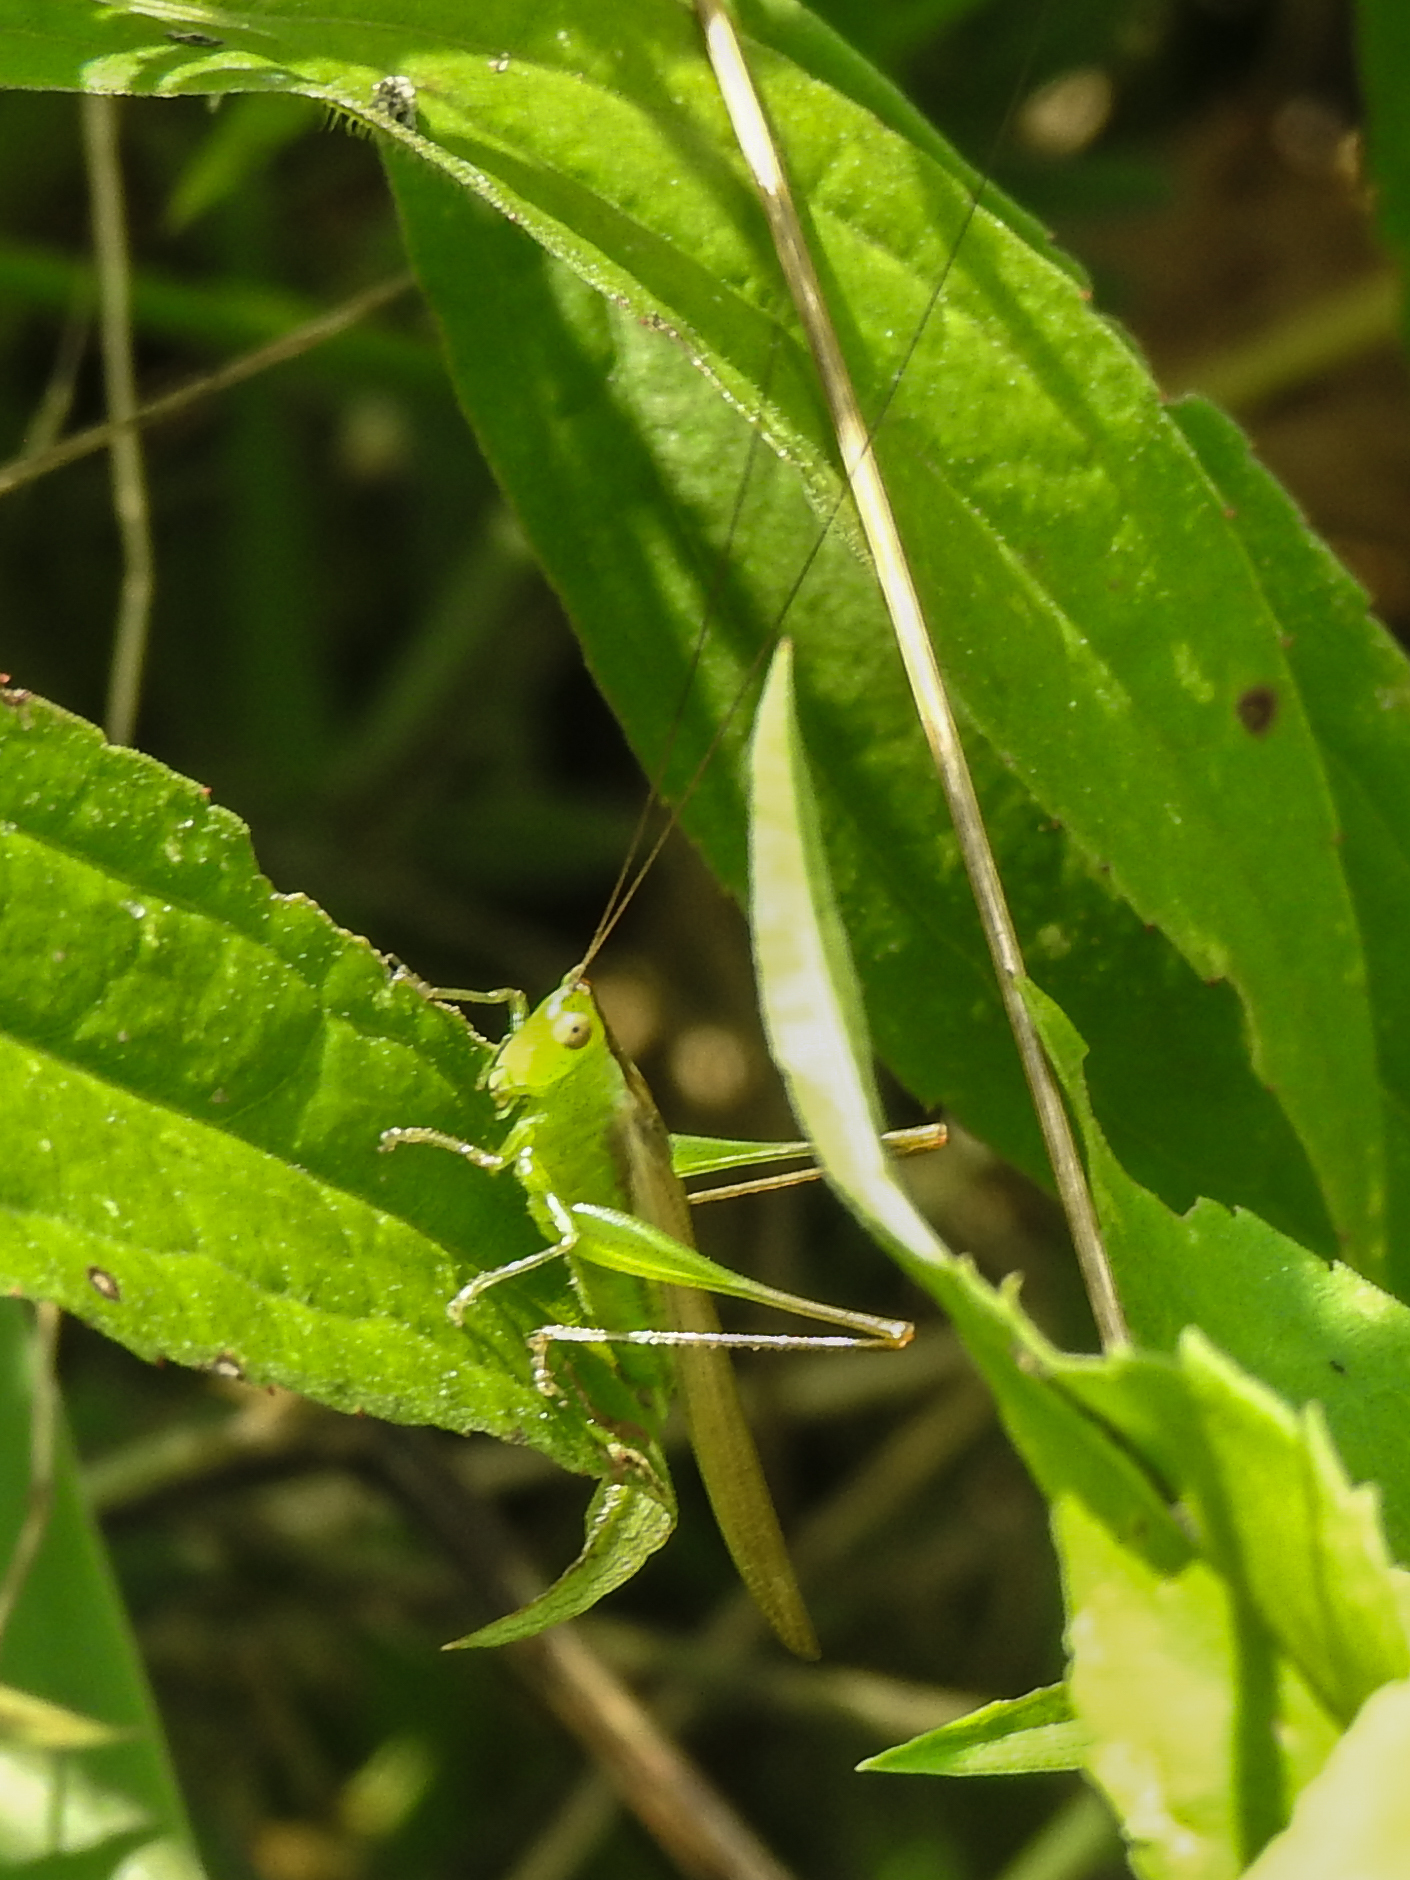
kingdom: Animalia
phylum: Arthropoda
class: Insecta
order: Orthoptera
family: Tettigoniidae
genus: Conocephalus
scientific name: Conocephalus fasciatus
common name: Slender meadow katydid
